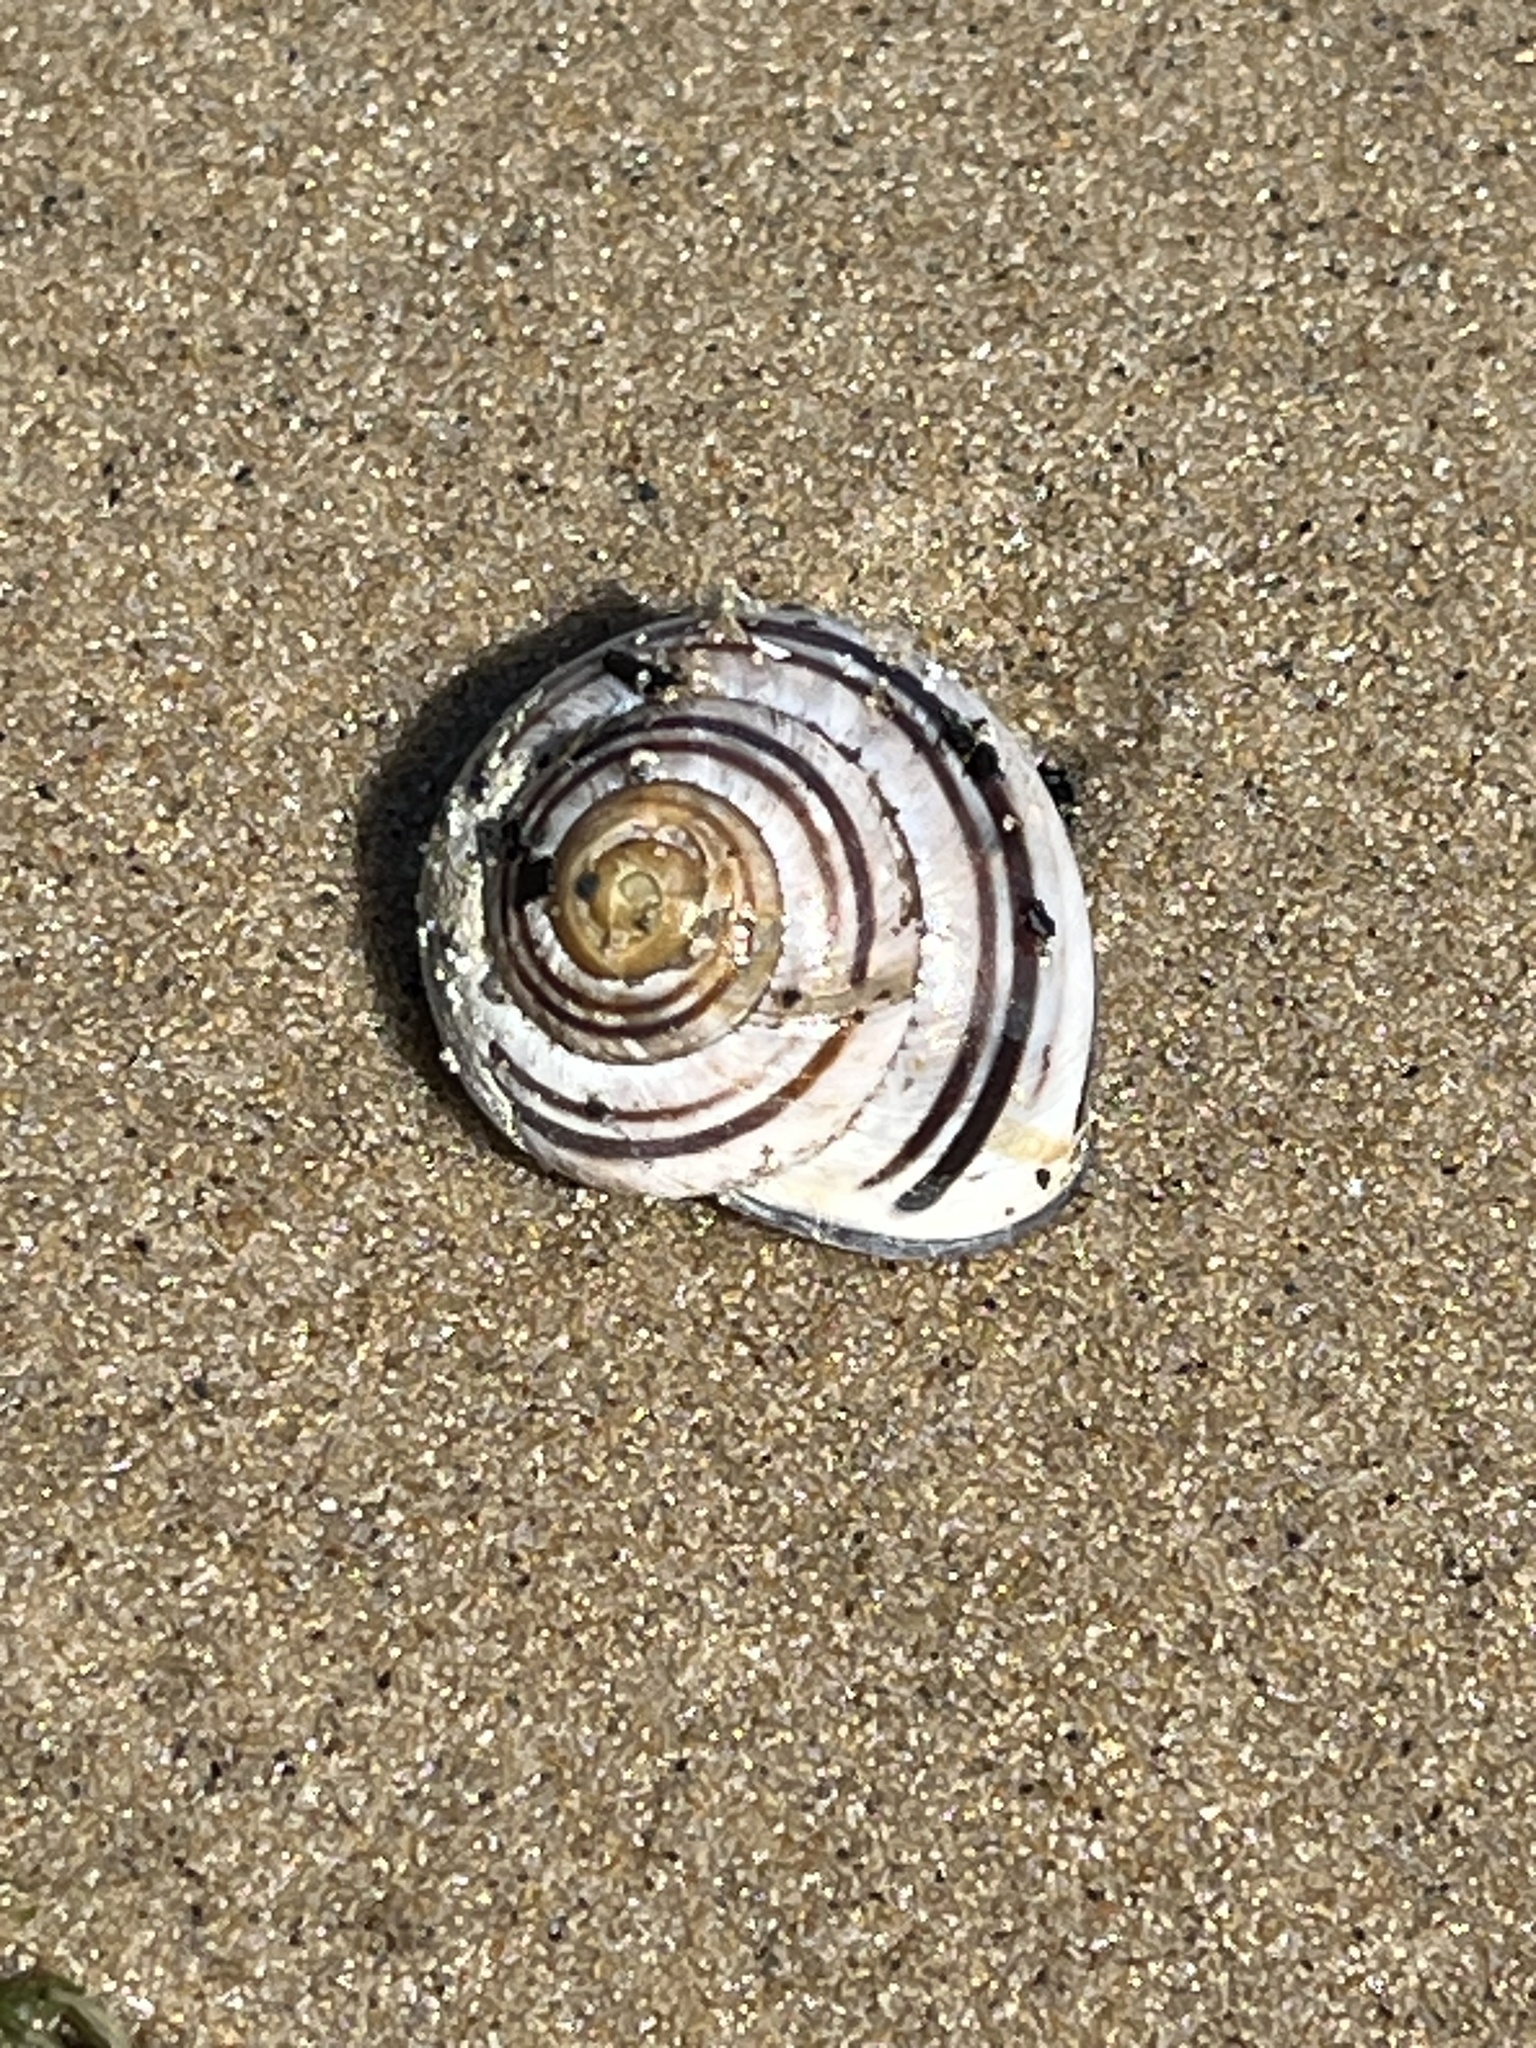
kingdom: Animalia
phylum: Mollusca
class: Gastropoda
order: Stylommatophora
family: Helicidae
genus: Cepaea
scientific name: Cepaea nemoralis
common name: Grovesnail
